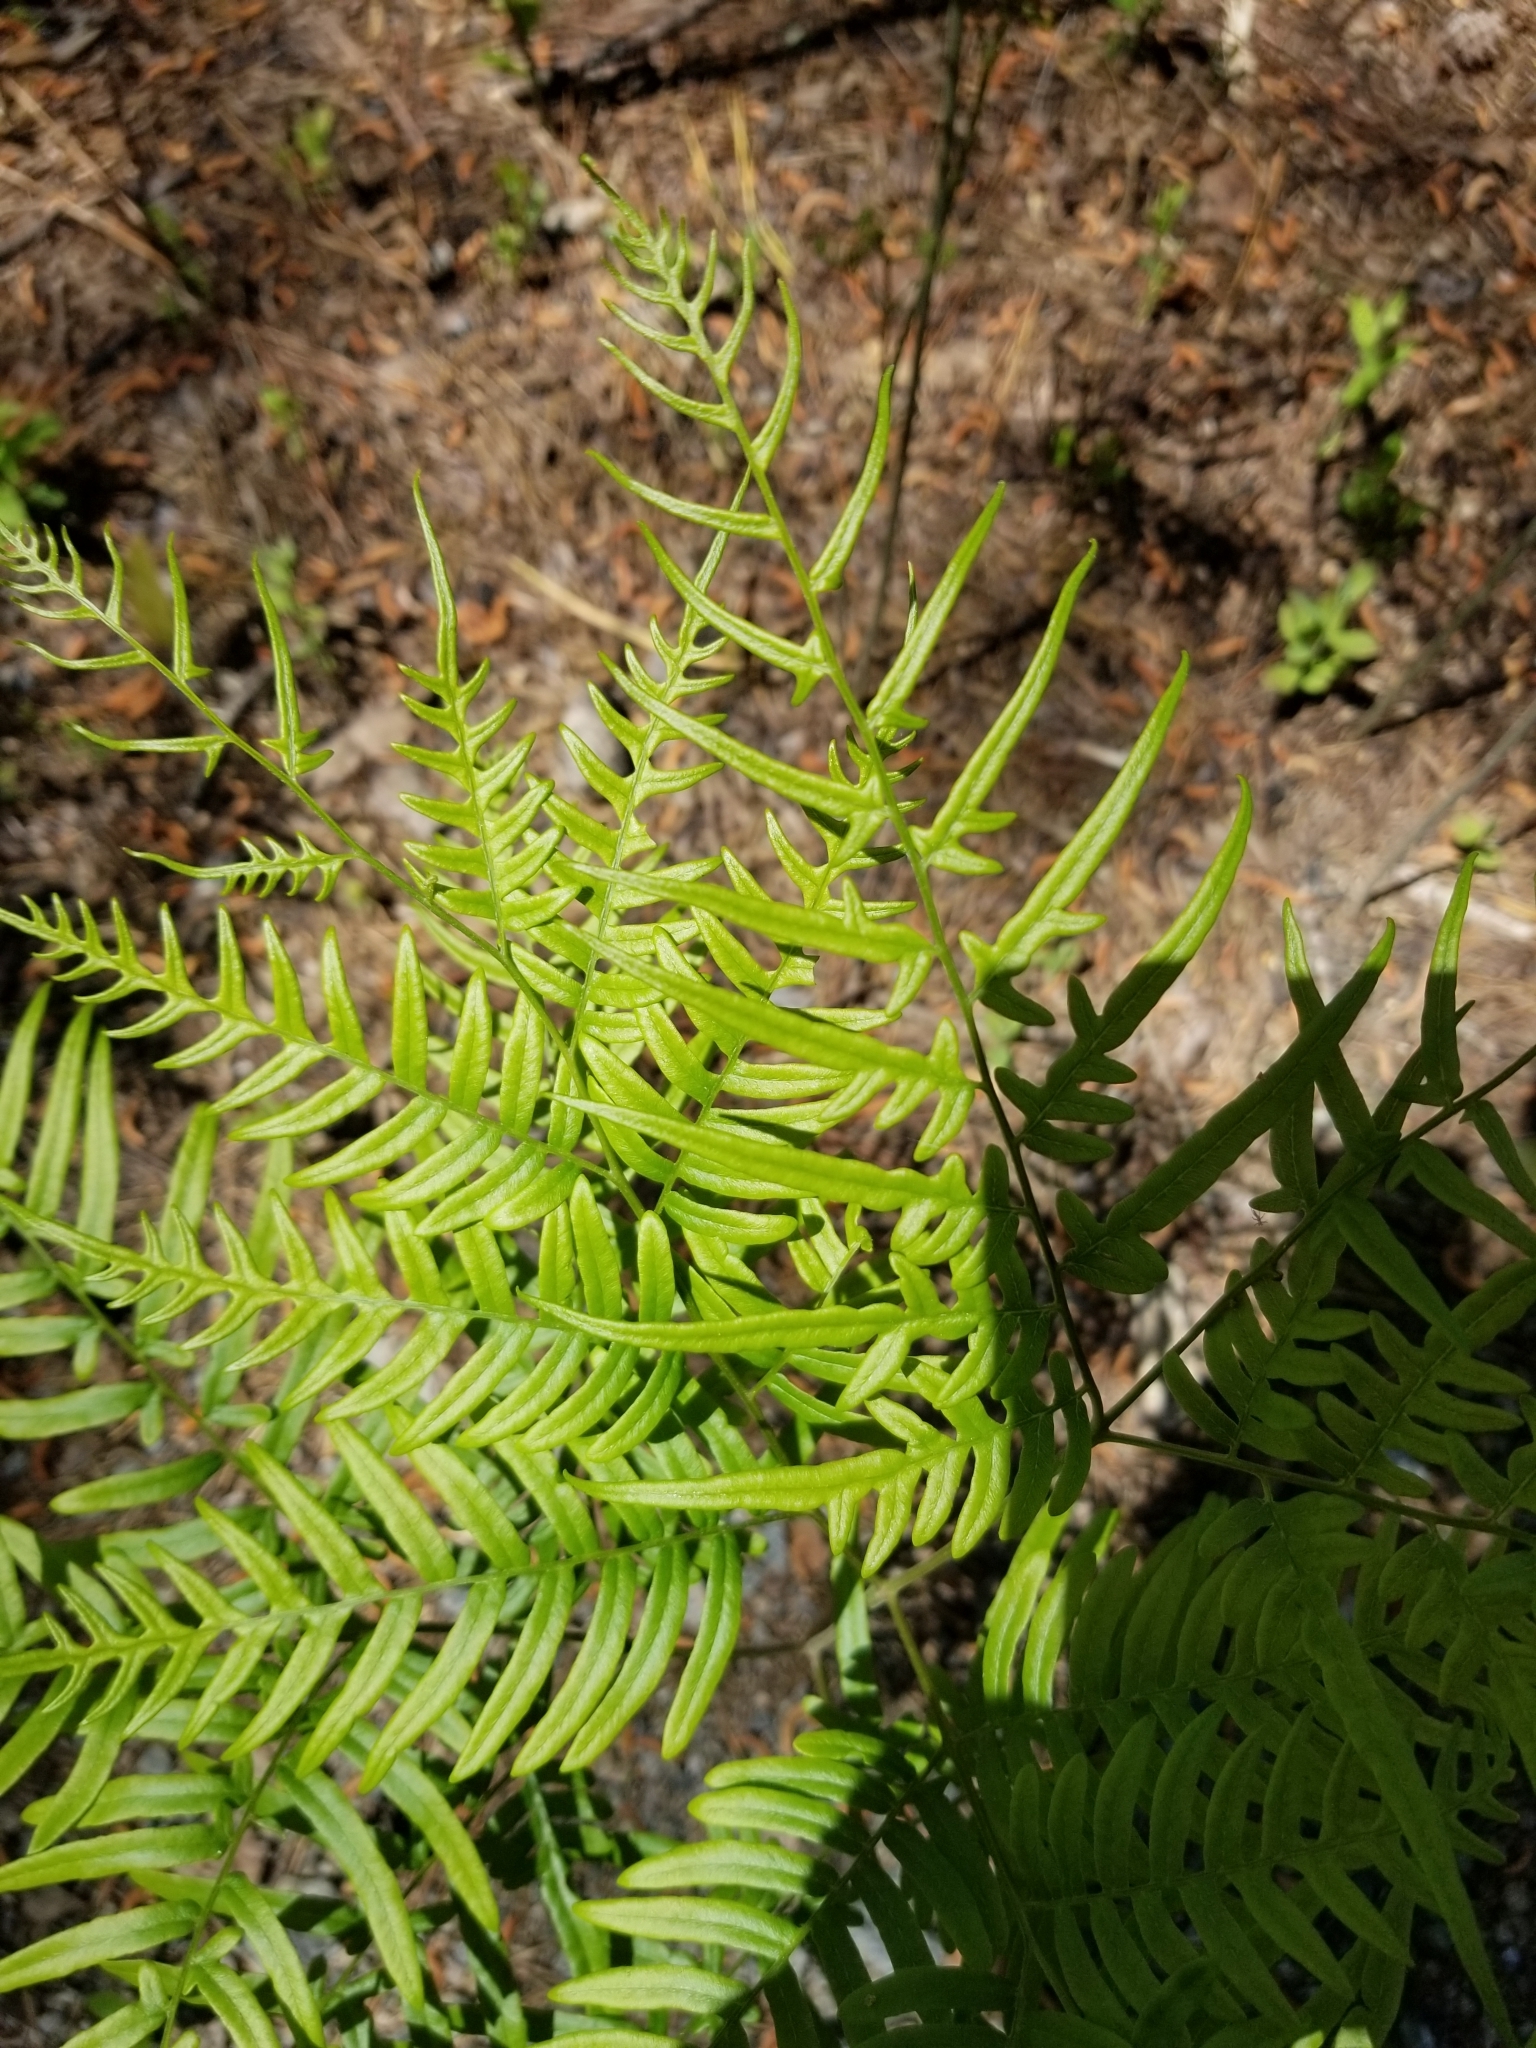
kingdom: Plantae
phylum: Tracheophyta
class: Polypodiopsida
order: Polypodiales
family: Dennstaedtiaceae
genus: Pteridium
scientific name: Pteridium aquilinum
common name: Bracken
